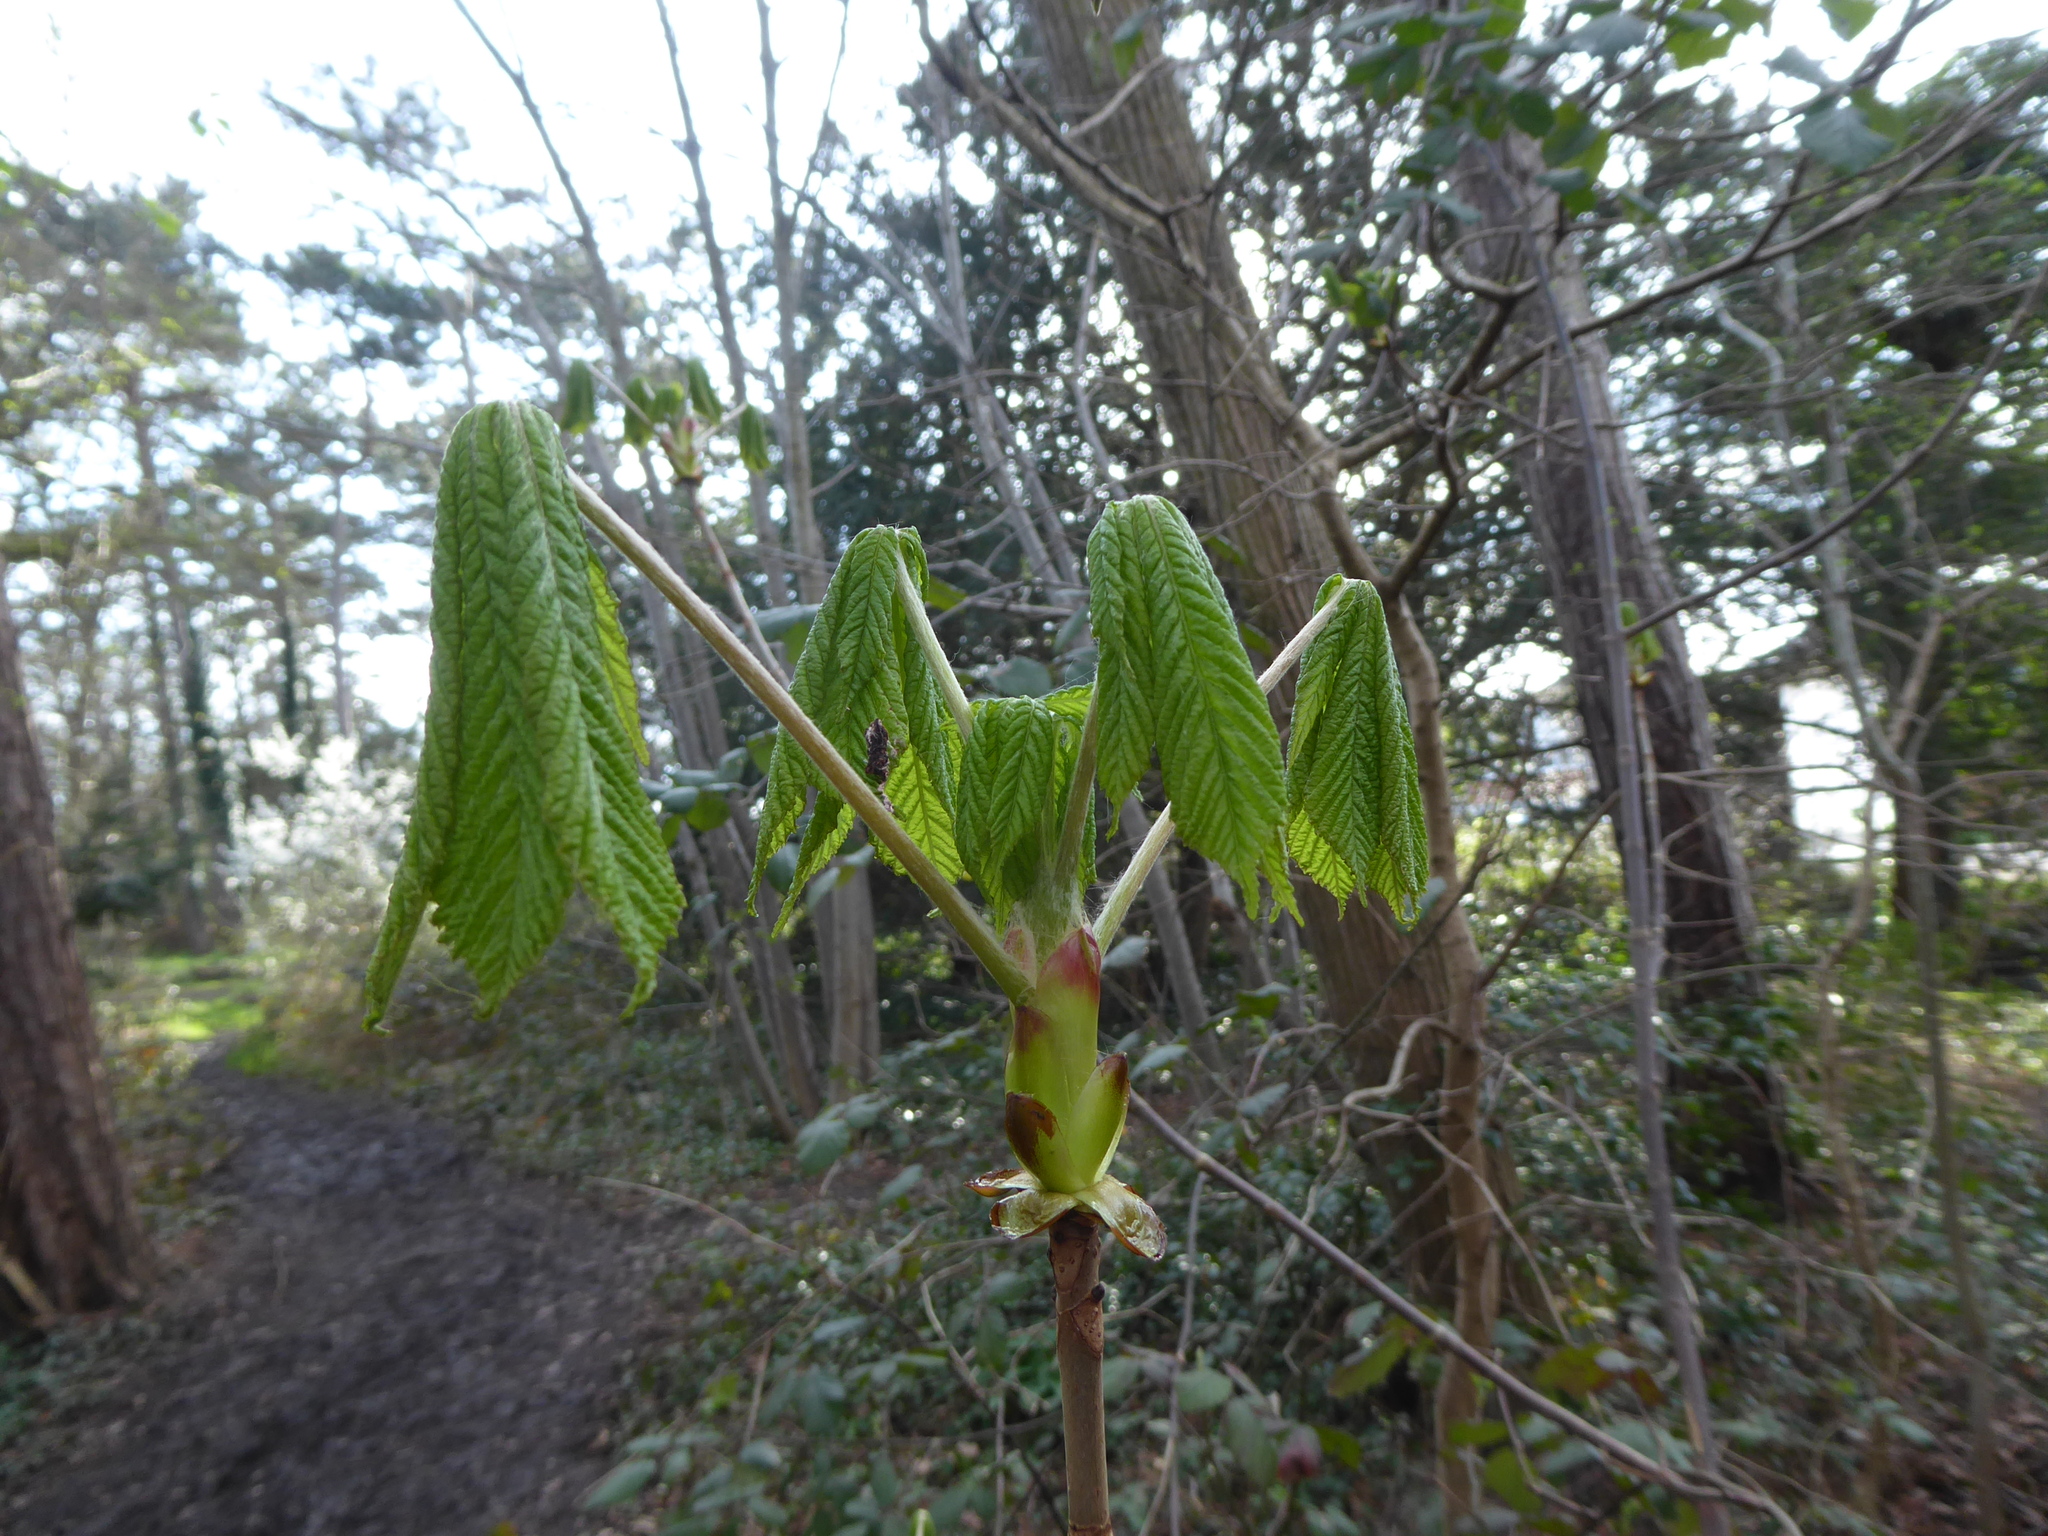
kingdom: Plantae
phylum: Tracheophyta
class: Magnoliopsida
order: Sapindales
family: Sapindaceae
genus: Aesculus
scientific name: Aesculus hippocastanum
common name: Horse-chestnut
